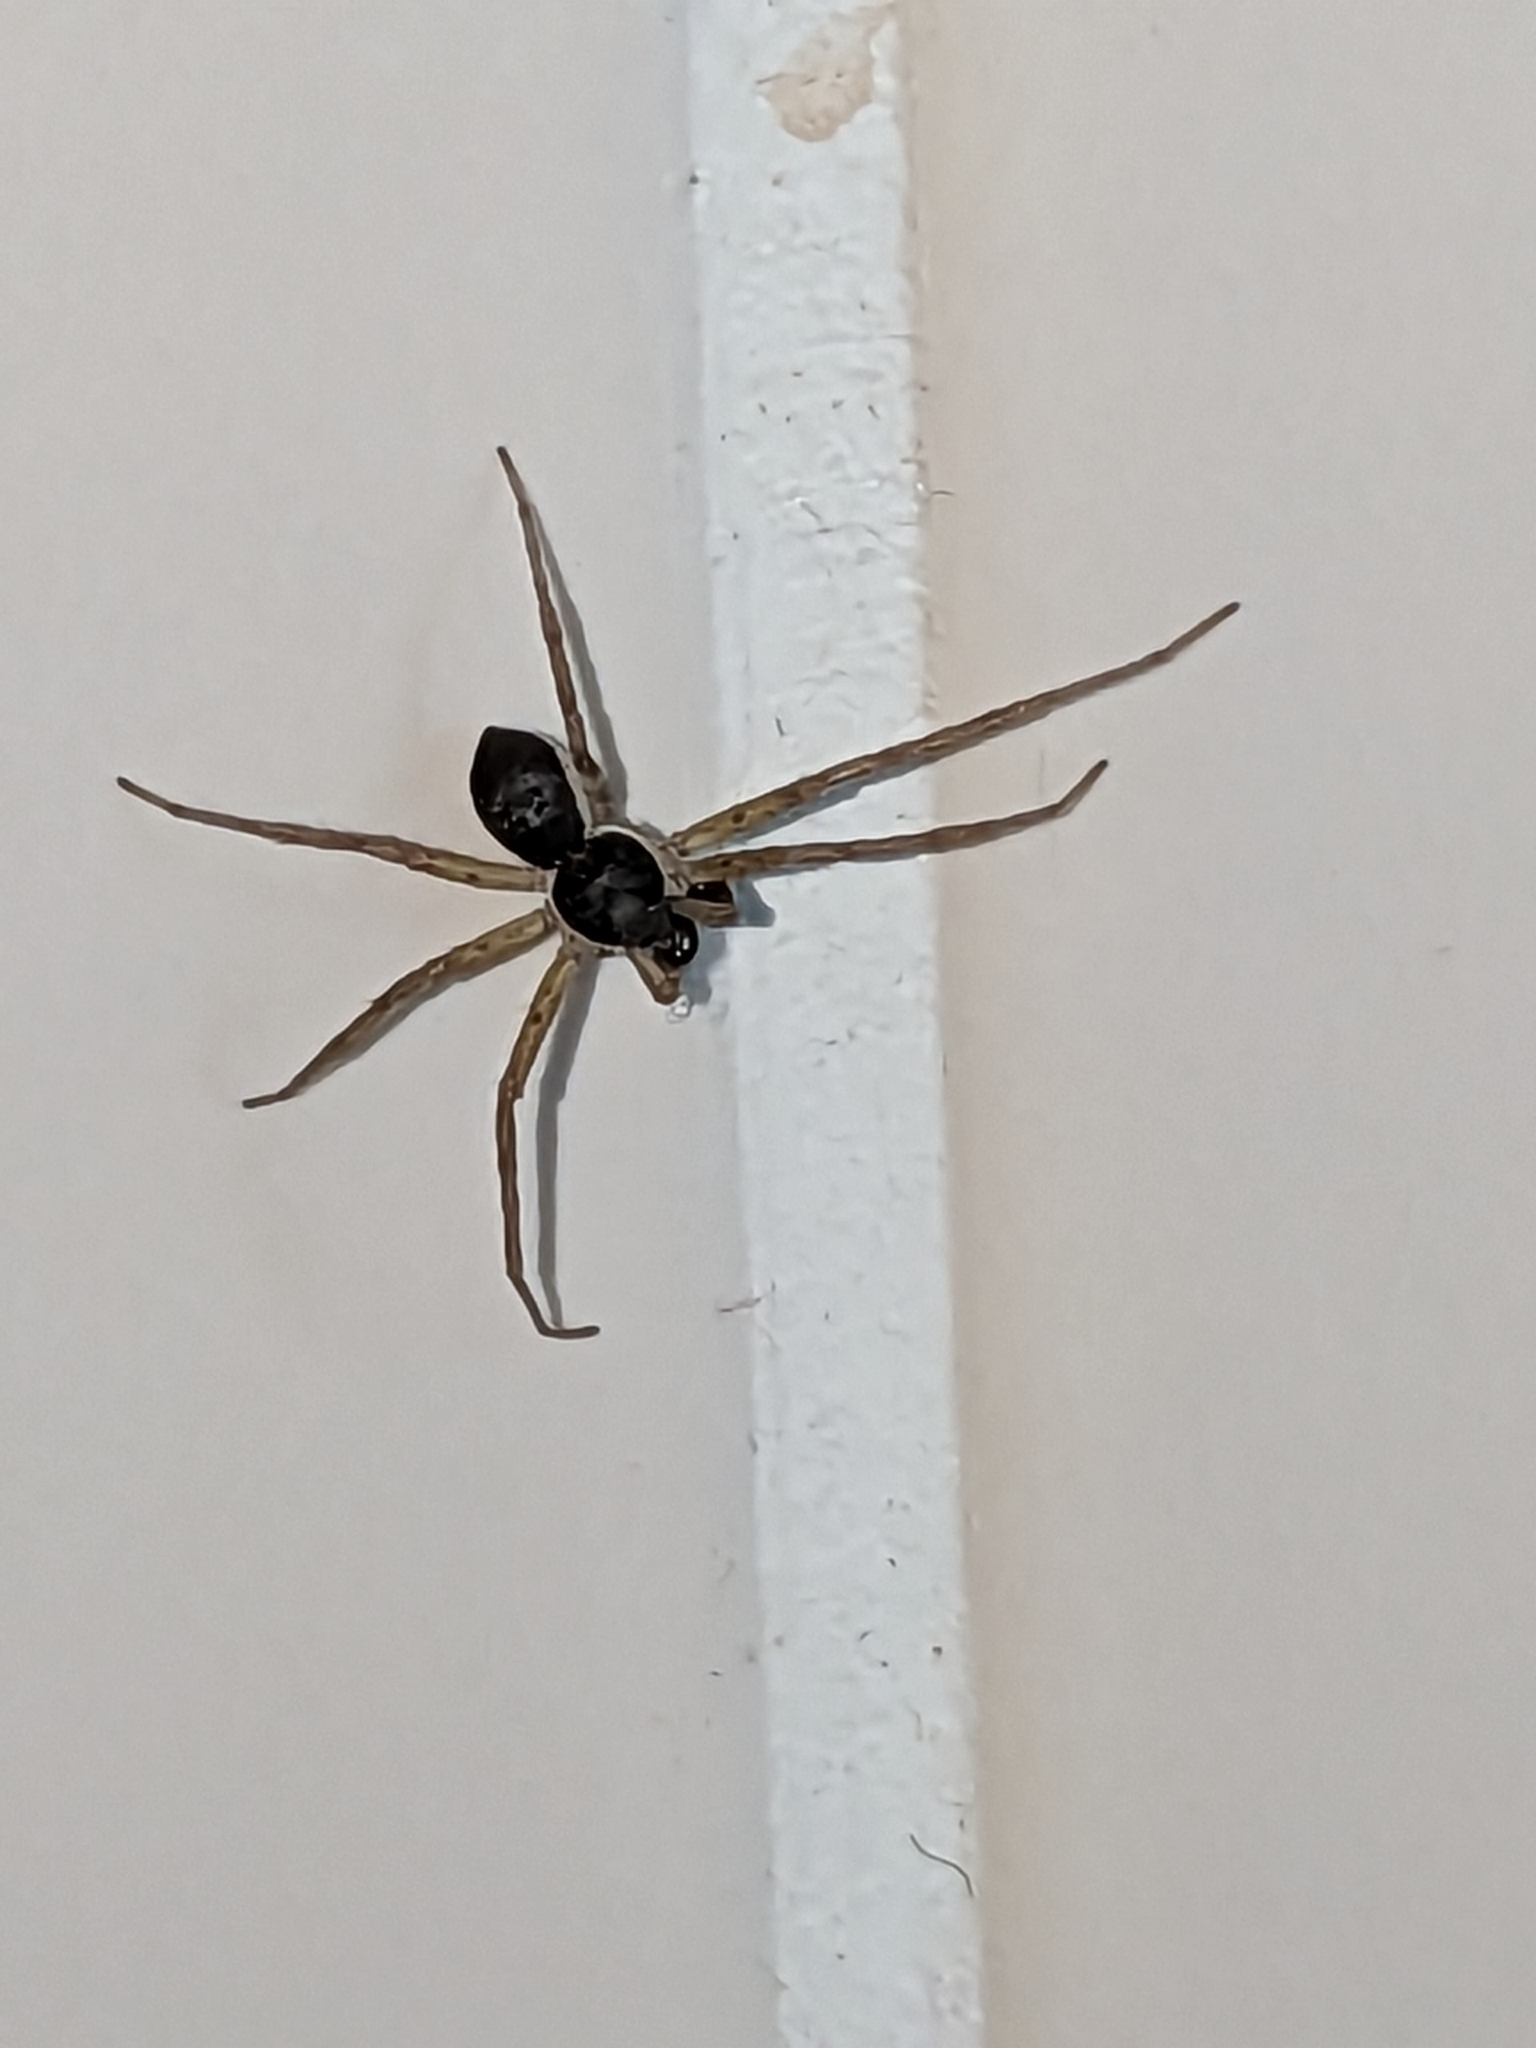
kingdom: Animalia
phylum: Arthropoda
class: Arachnida
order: Araneae
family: Philodromidae
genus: Philodromus
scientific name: Philodromus dispar
